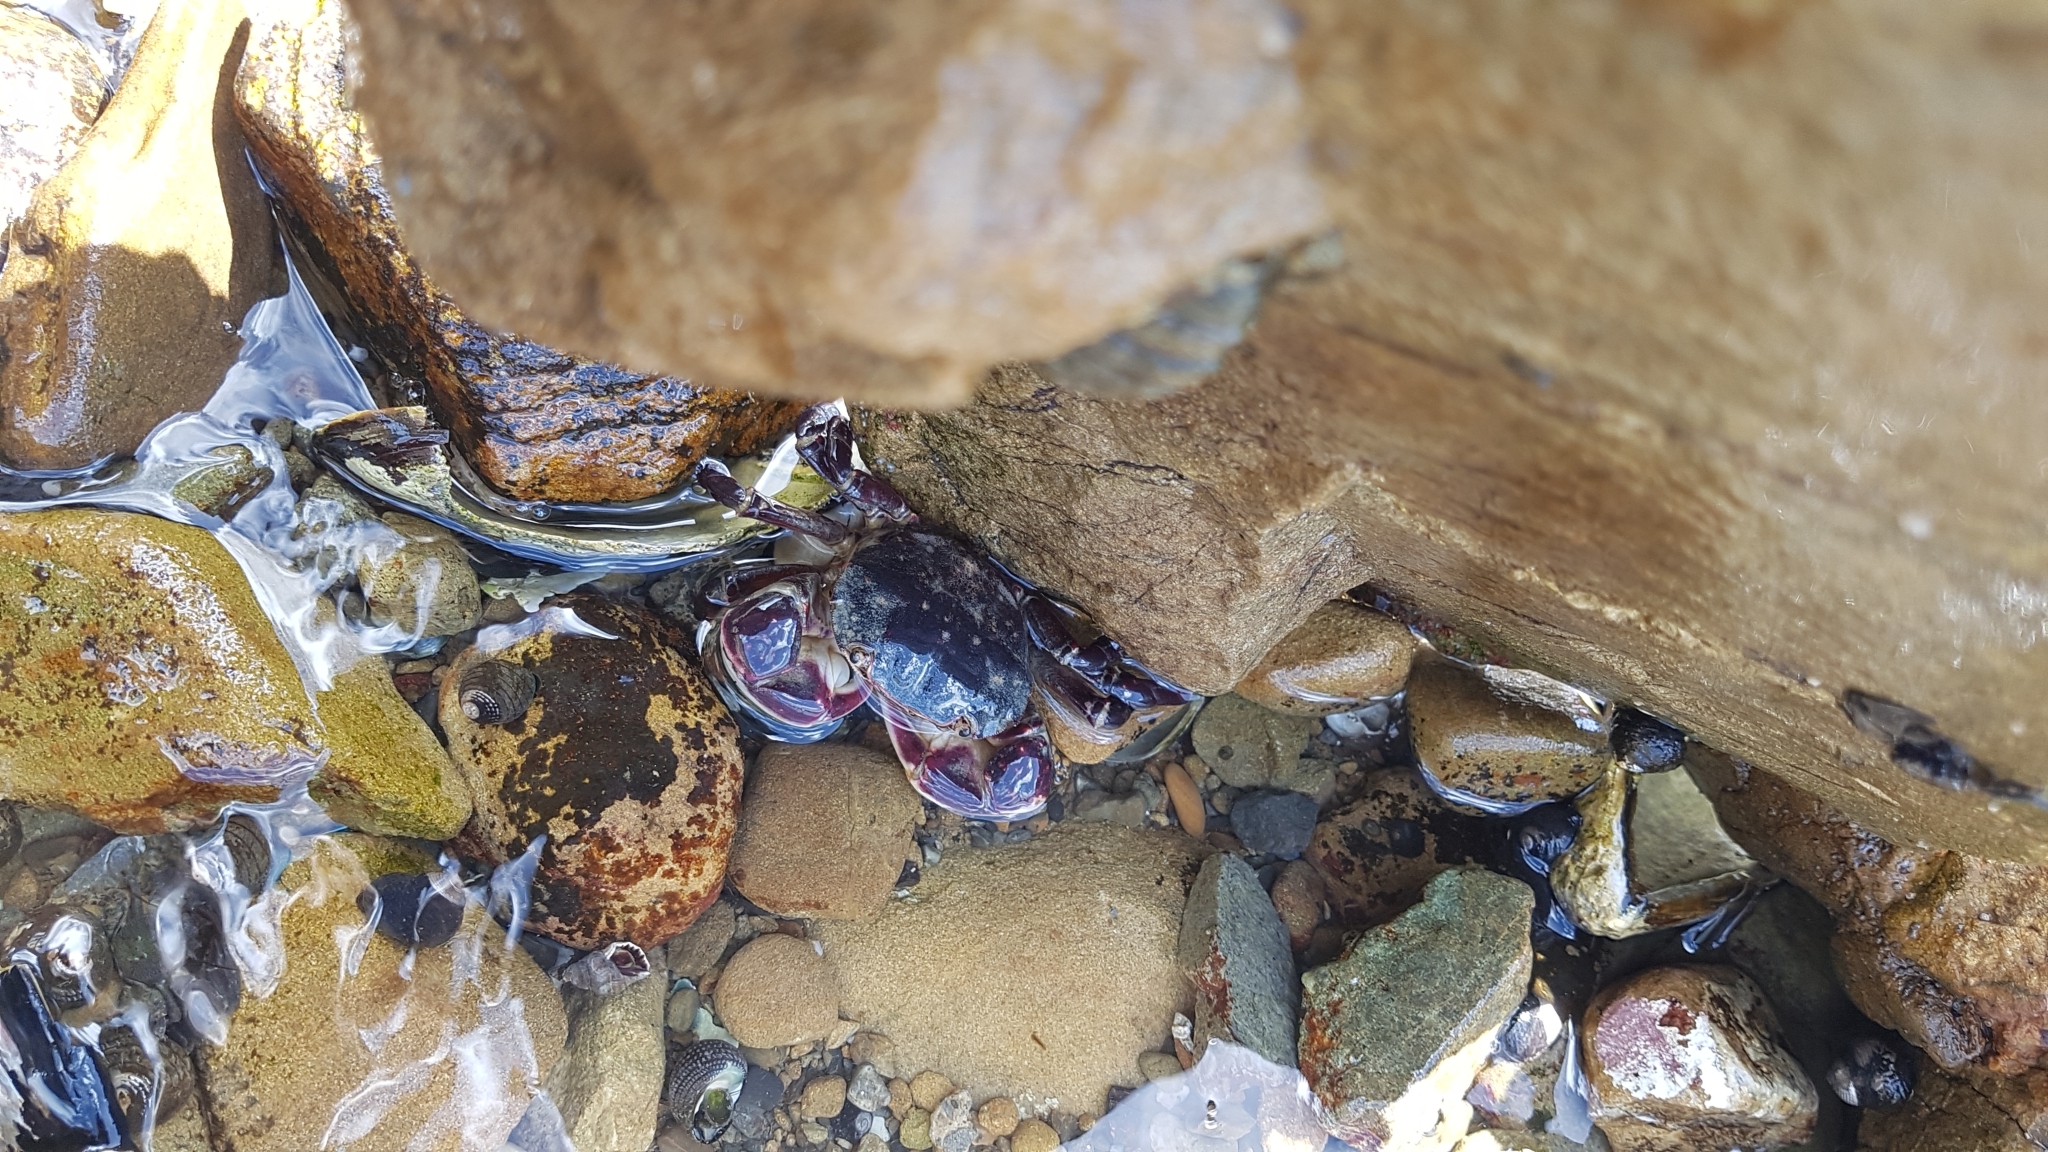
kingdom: Animalia
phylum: Arthropoda
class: Malacostraca
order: Decapoda
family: Varunidae
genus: Hemigrapsus
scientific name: Hemigrapsus sexdentatus
